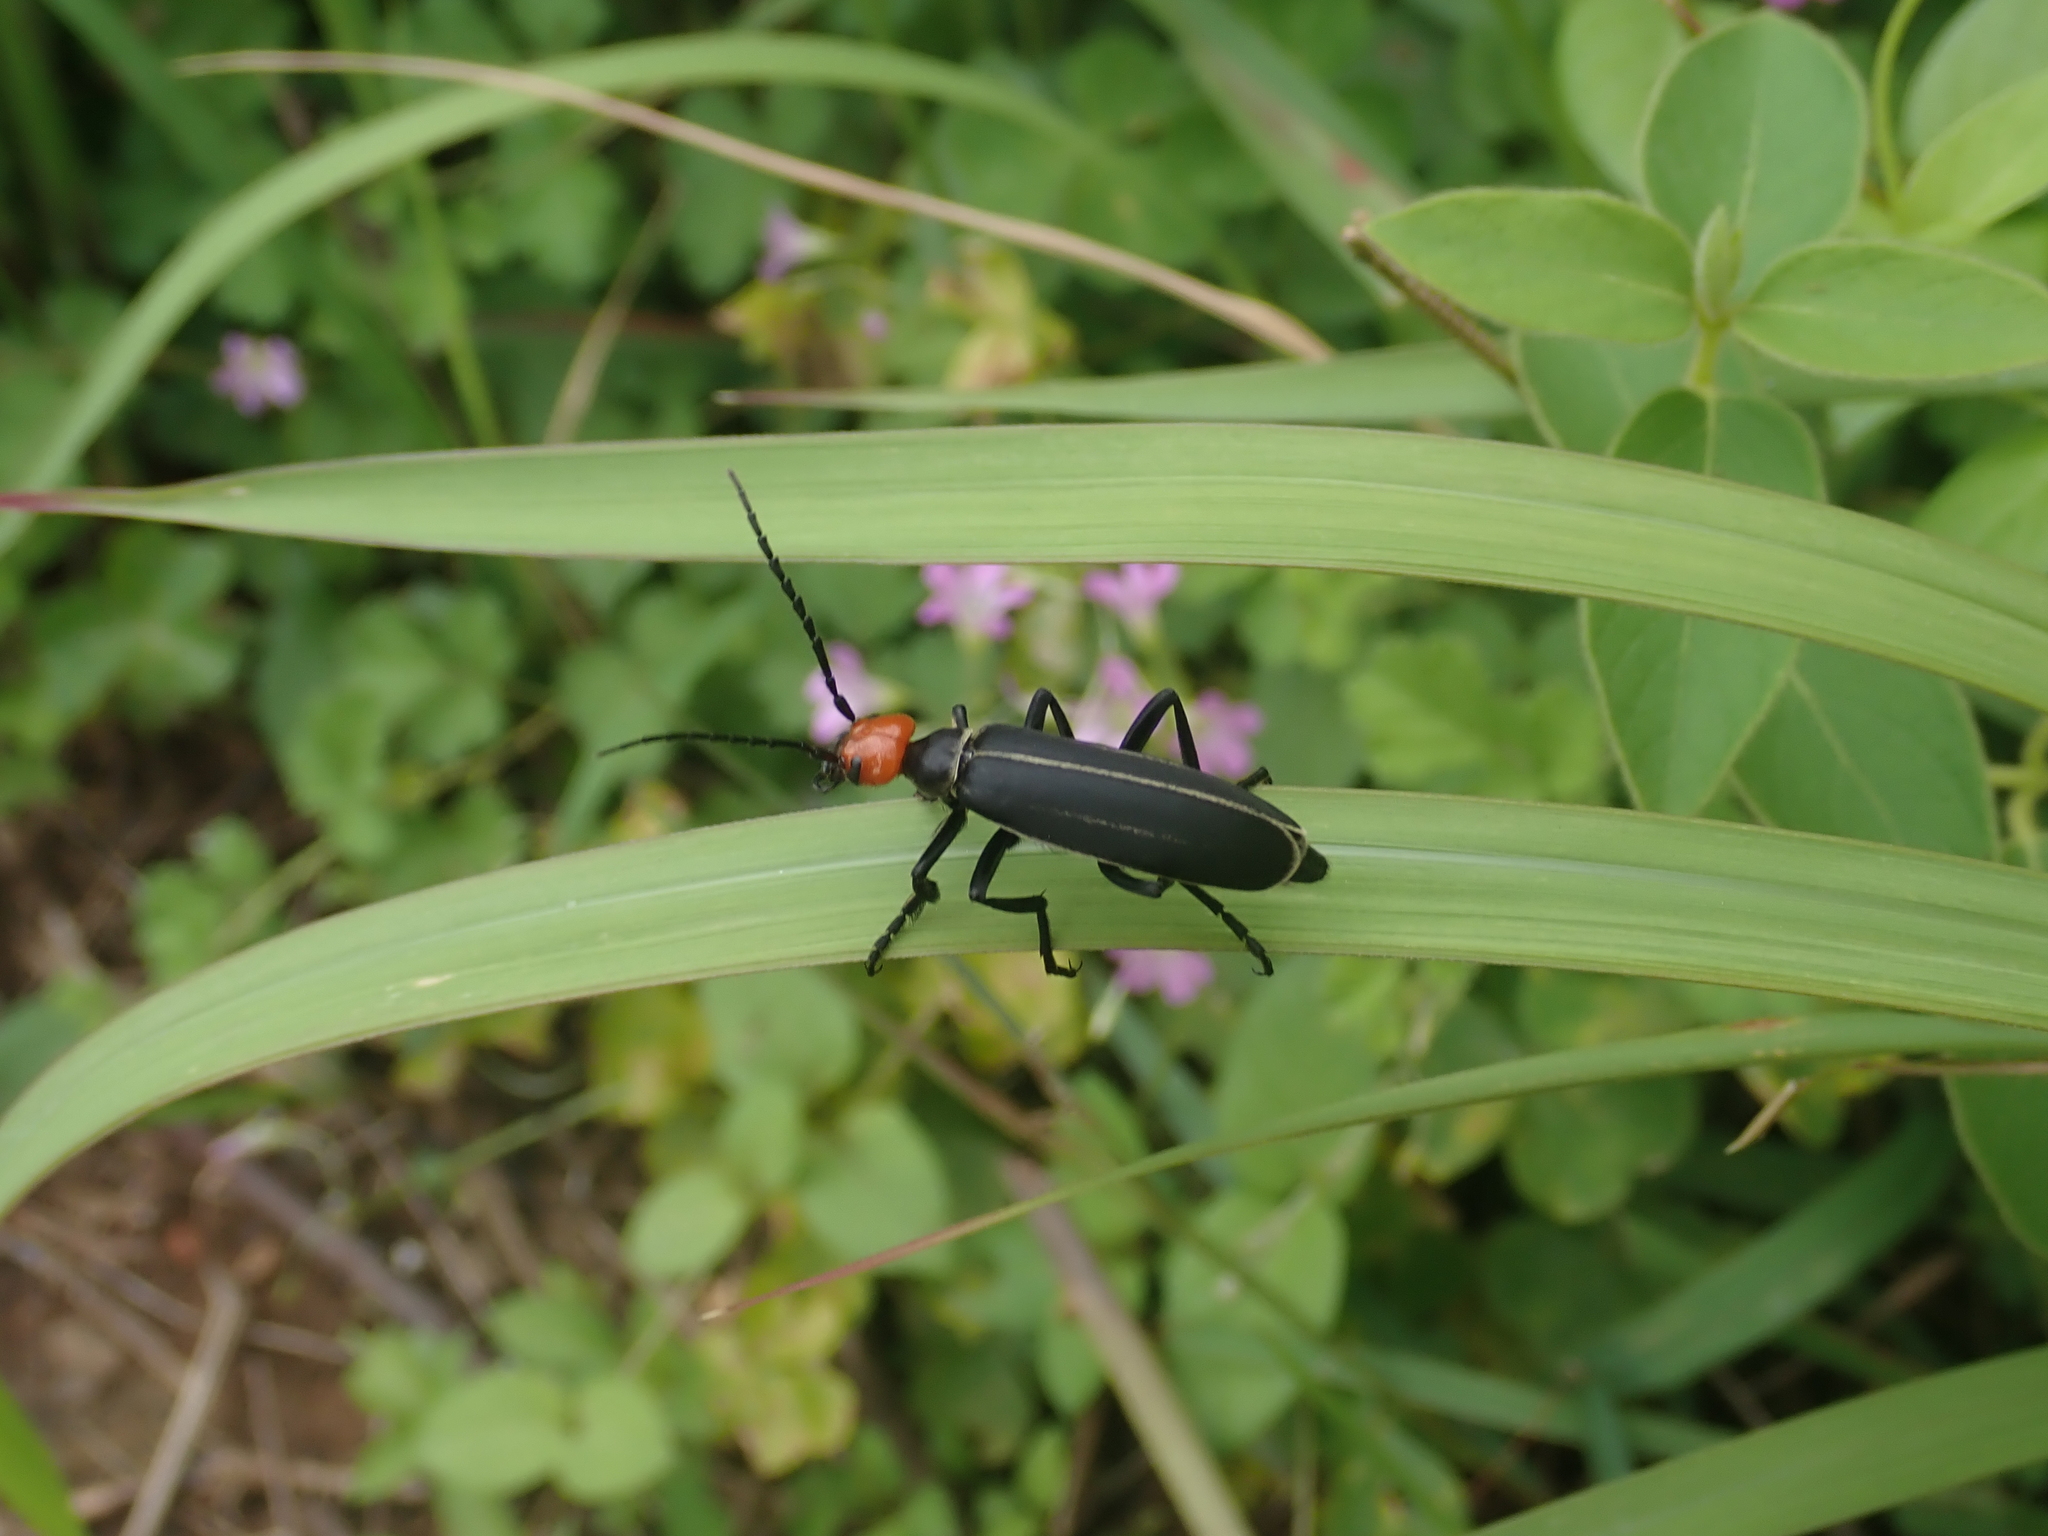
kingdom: Animalia
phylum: Arthropoda
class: Insecta
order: Coleoptera
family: Meloidae
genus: Epicauta
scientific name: Epicauta waterhousei
